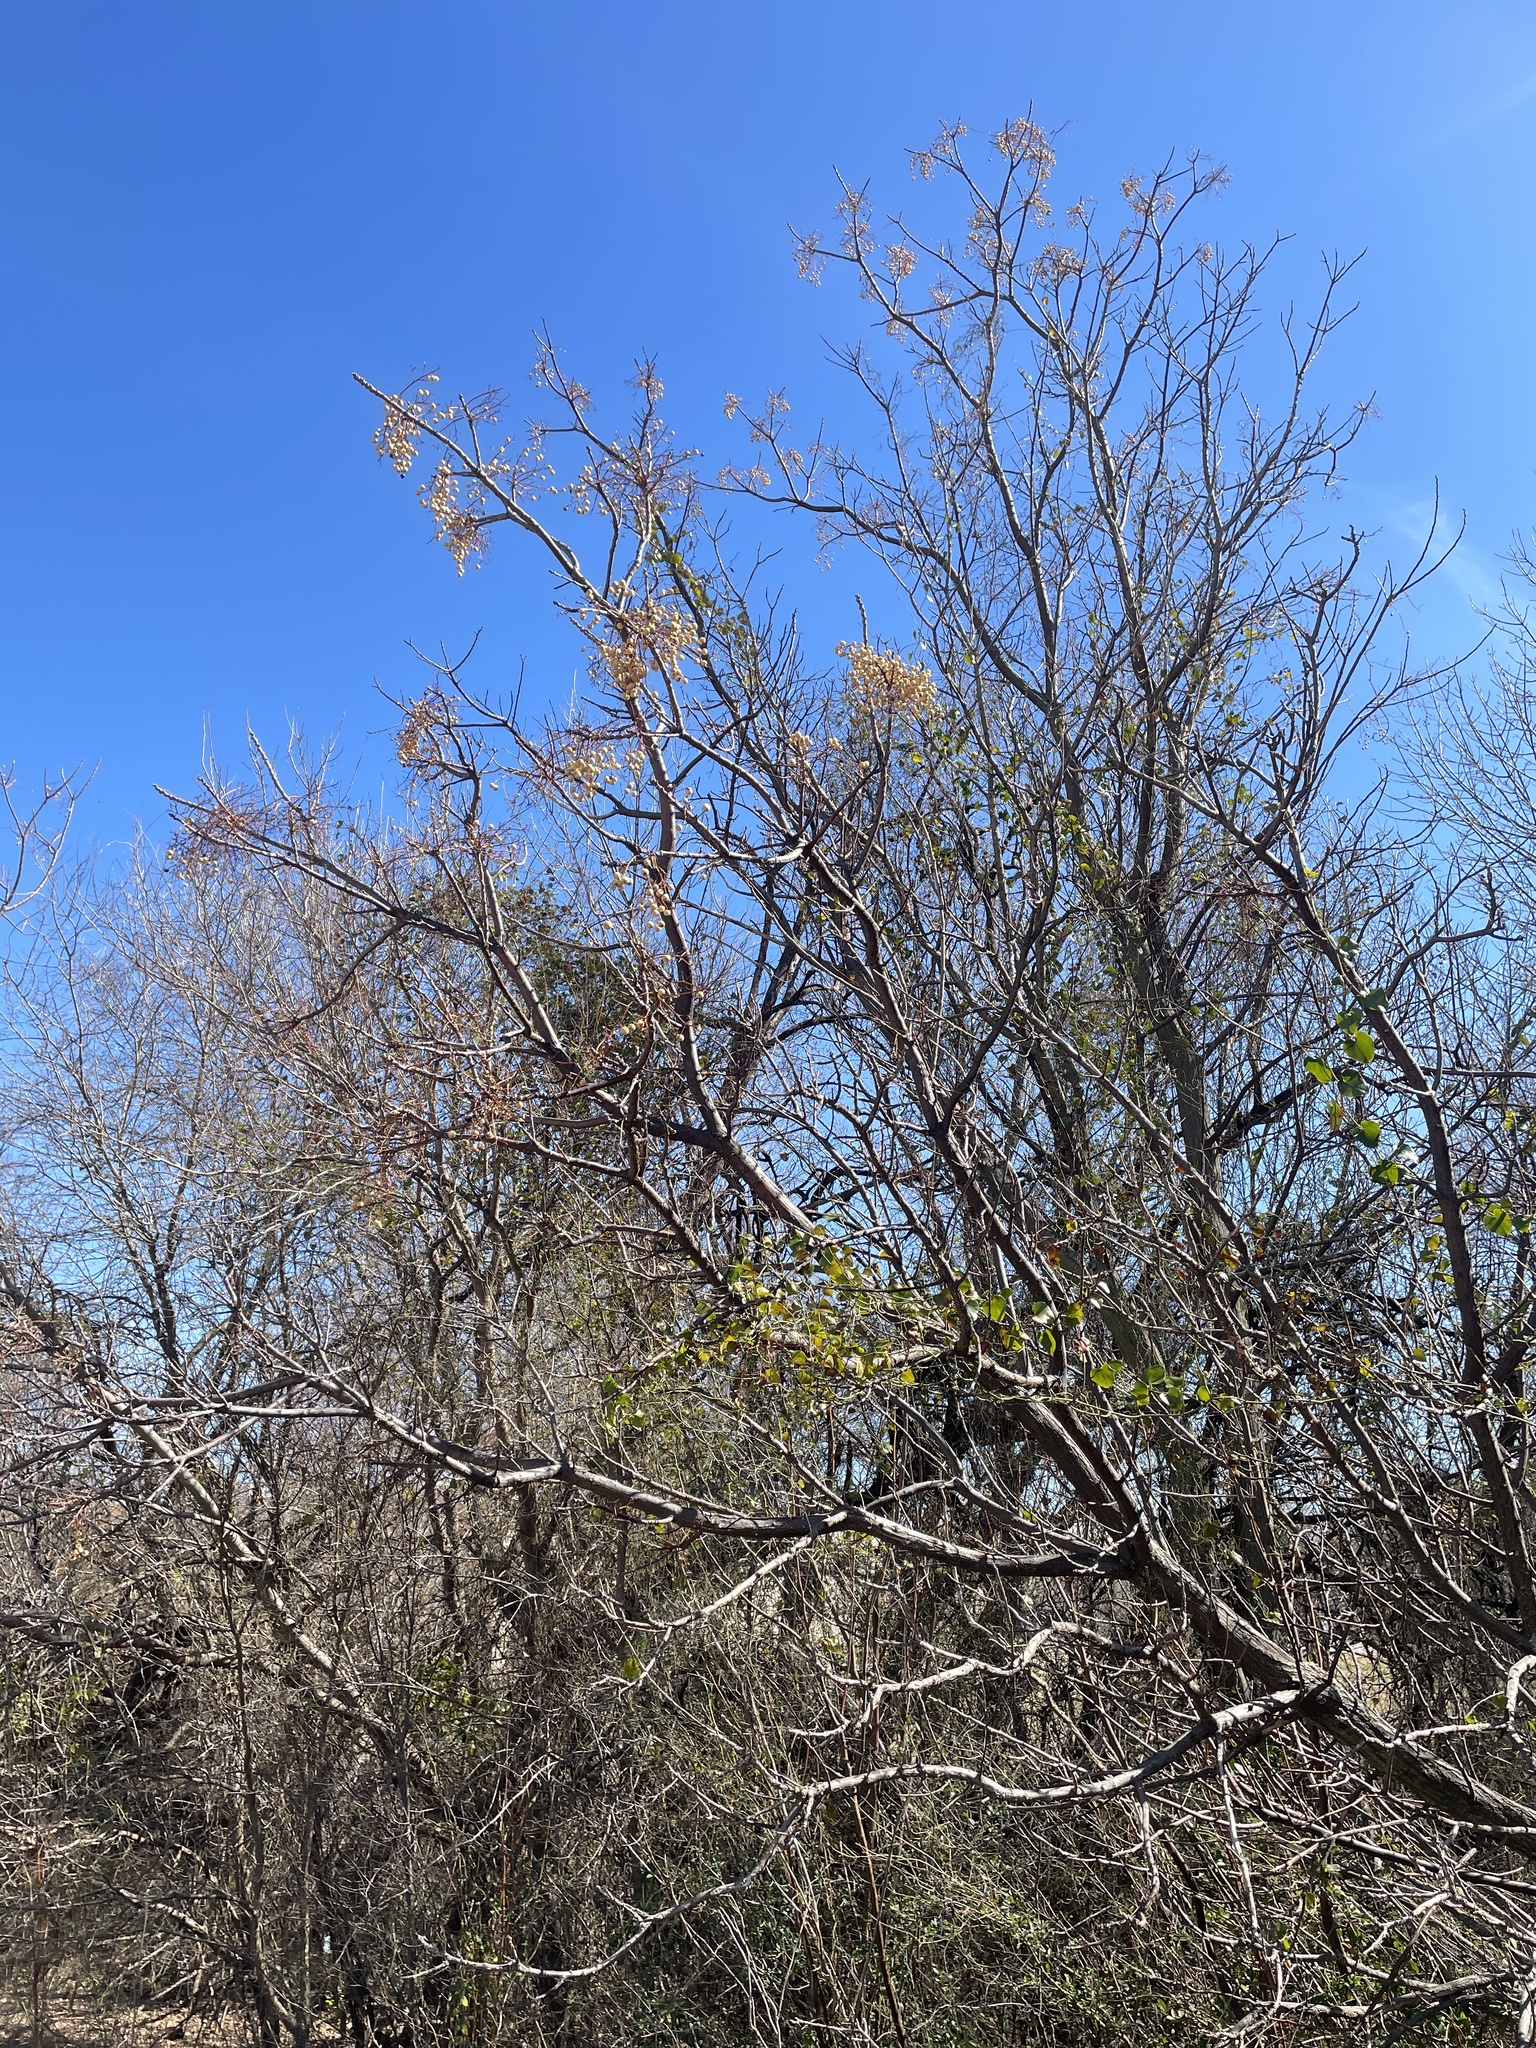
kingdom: Plantae
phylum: Tracheophyta
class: Magnoliopsida
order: Sapindales
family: Meliaceae
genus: Melia
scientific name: Melia azedarach
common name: Chinaberrytree
